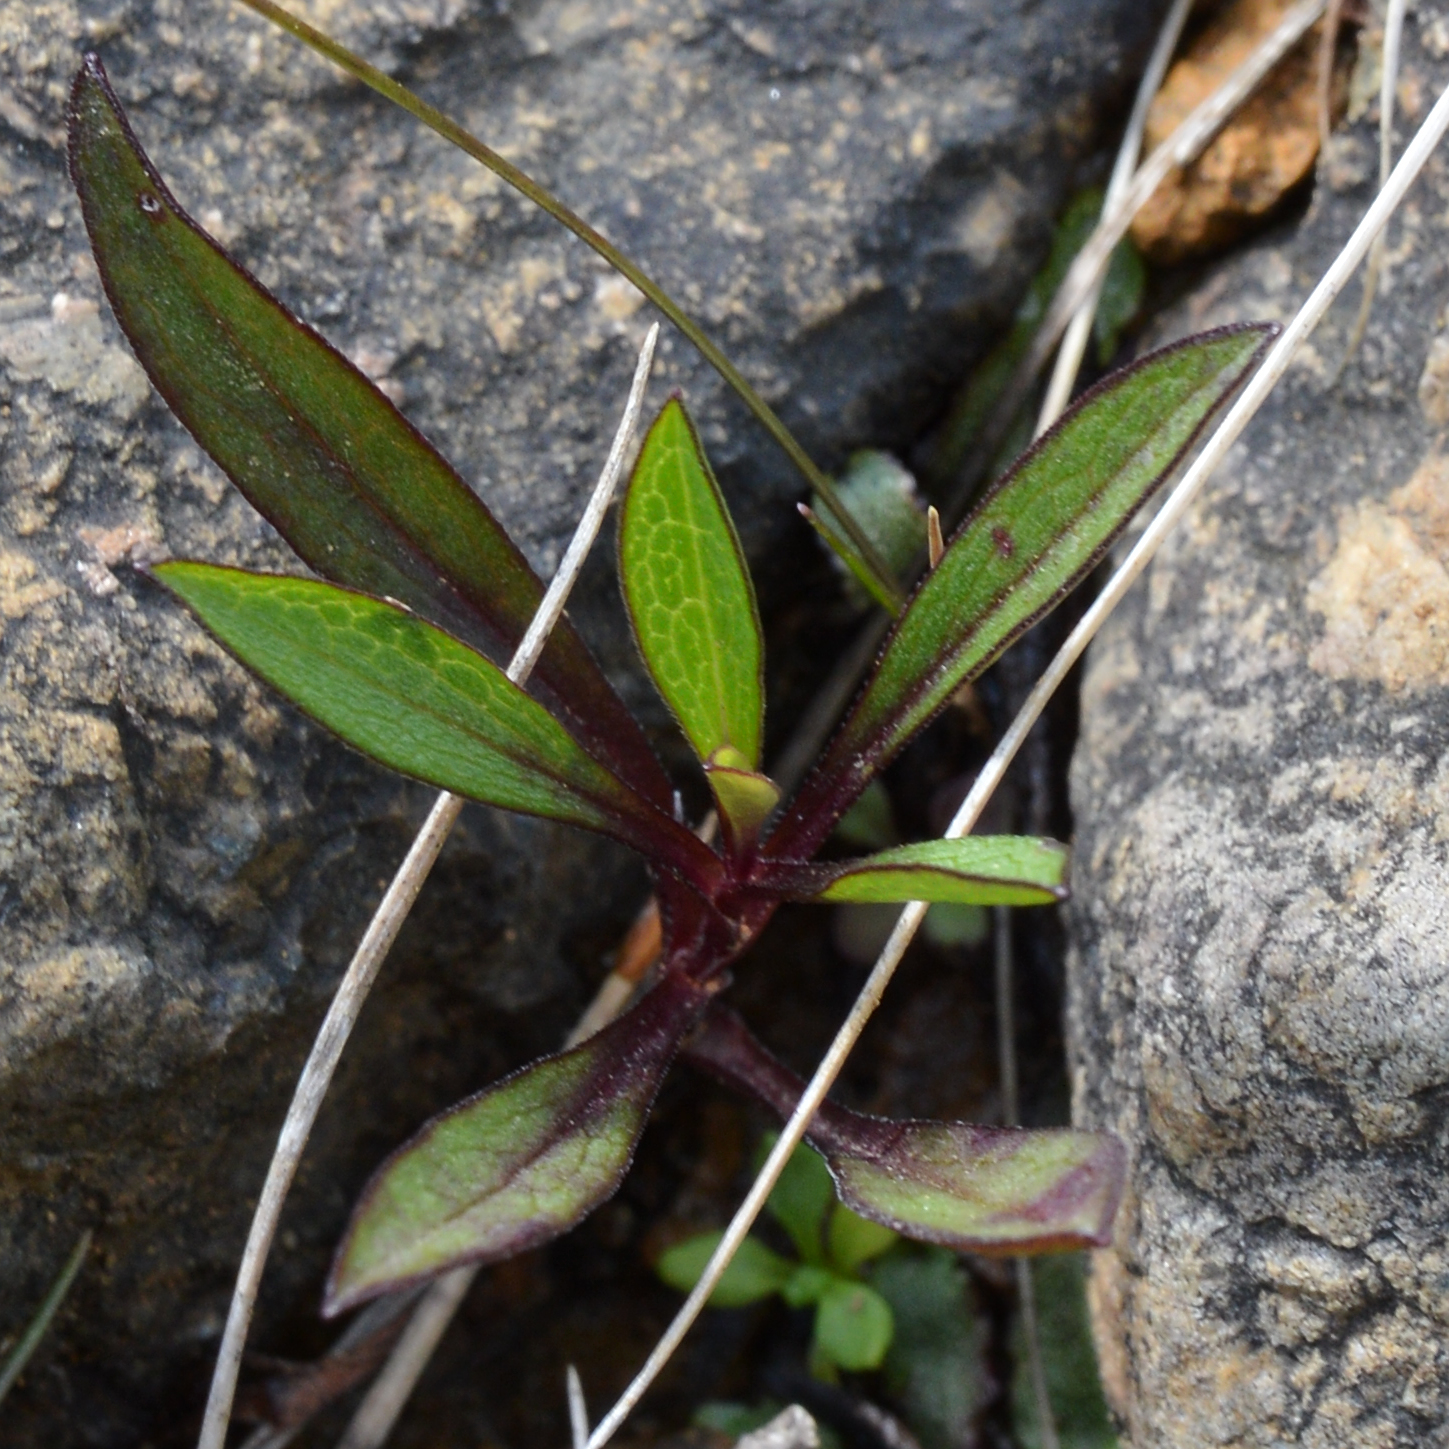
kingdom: Plantae
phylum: Tracheophyta
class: Magnoliopsida
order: Asterales
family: Asteraceae
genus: Symphyotrichum
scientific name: Symphyotrichum novi-belgii
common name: Michaelmas daisy
